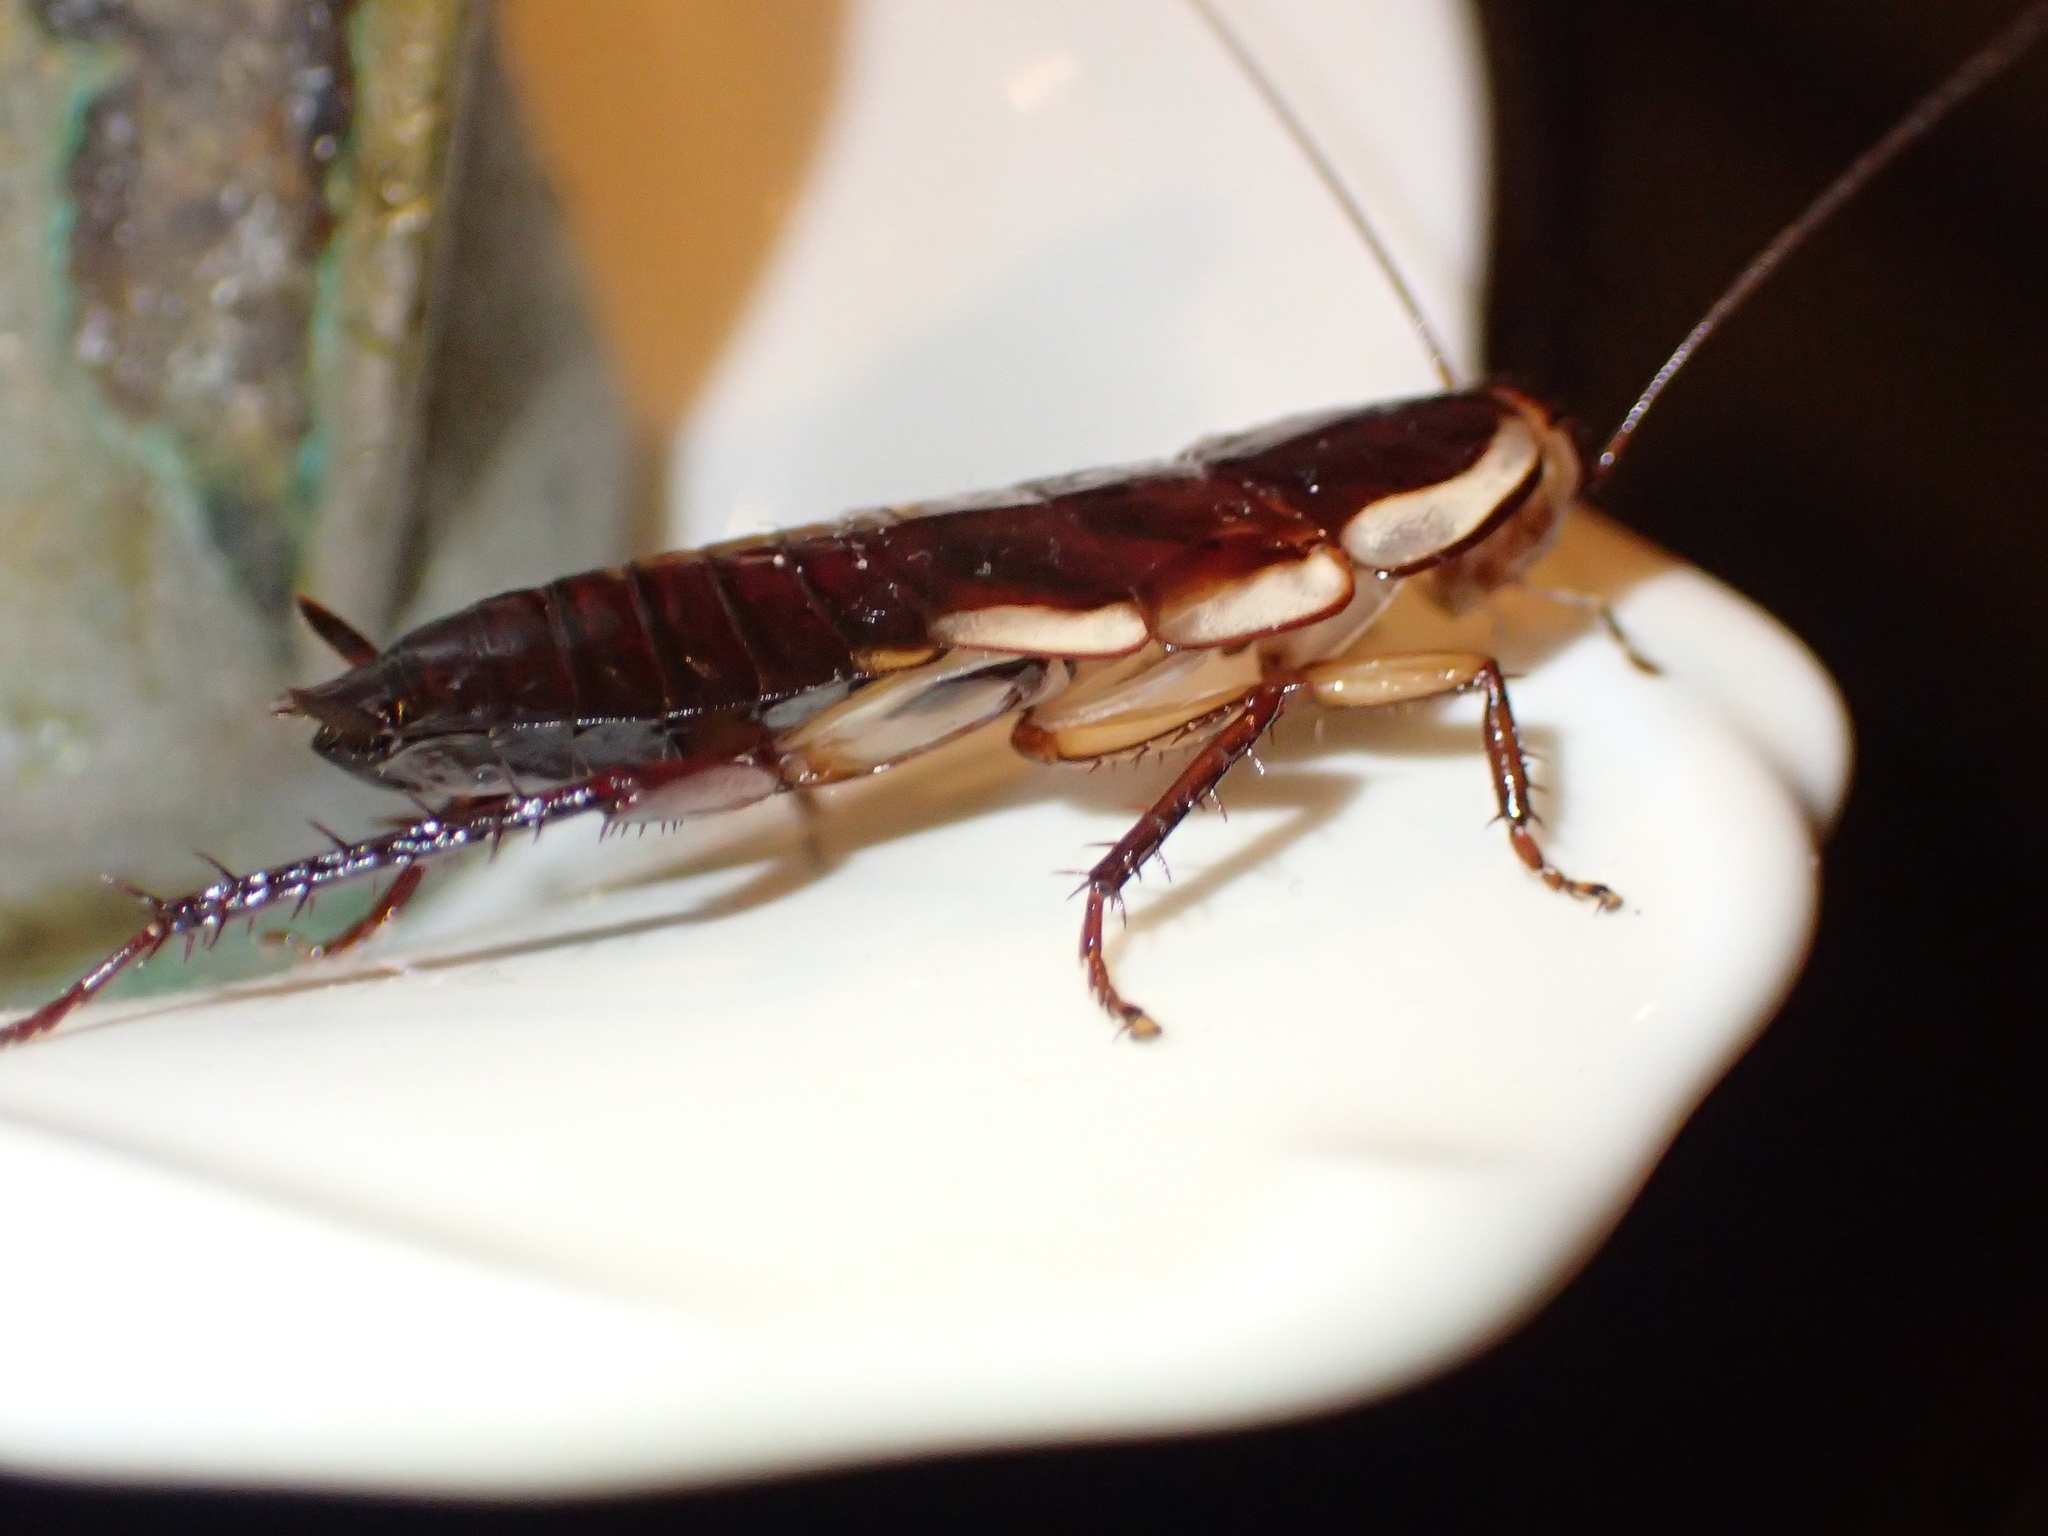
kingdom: Animalia
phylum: Arthropoda
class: Insecta
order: Blattodea
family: Blattidae
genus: Drymaplaneta
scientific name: Drymaplaneta semivitta
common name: Gisborne cockroach
